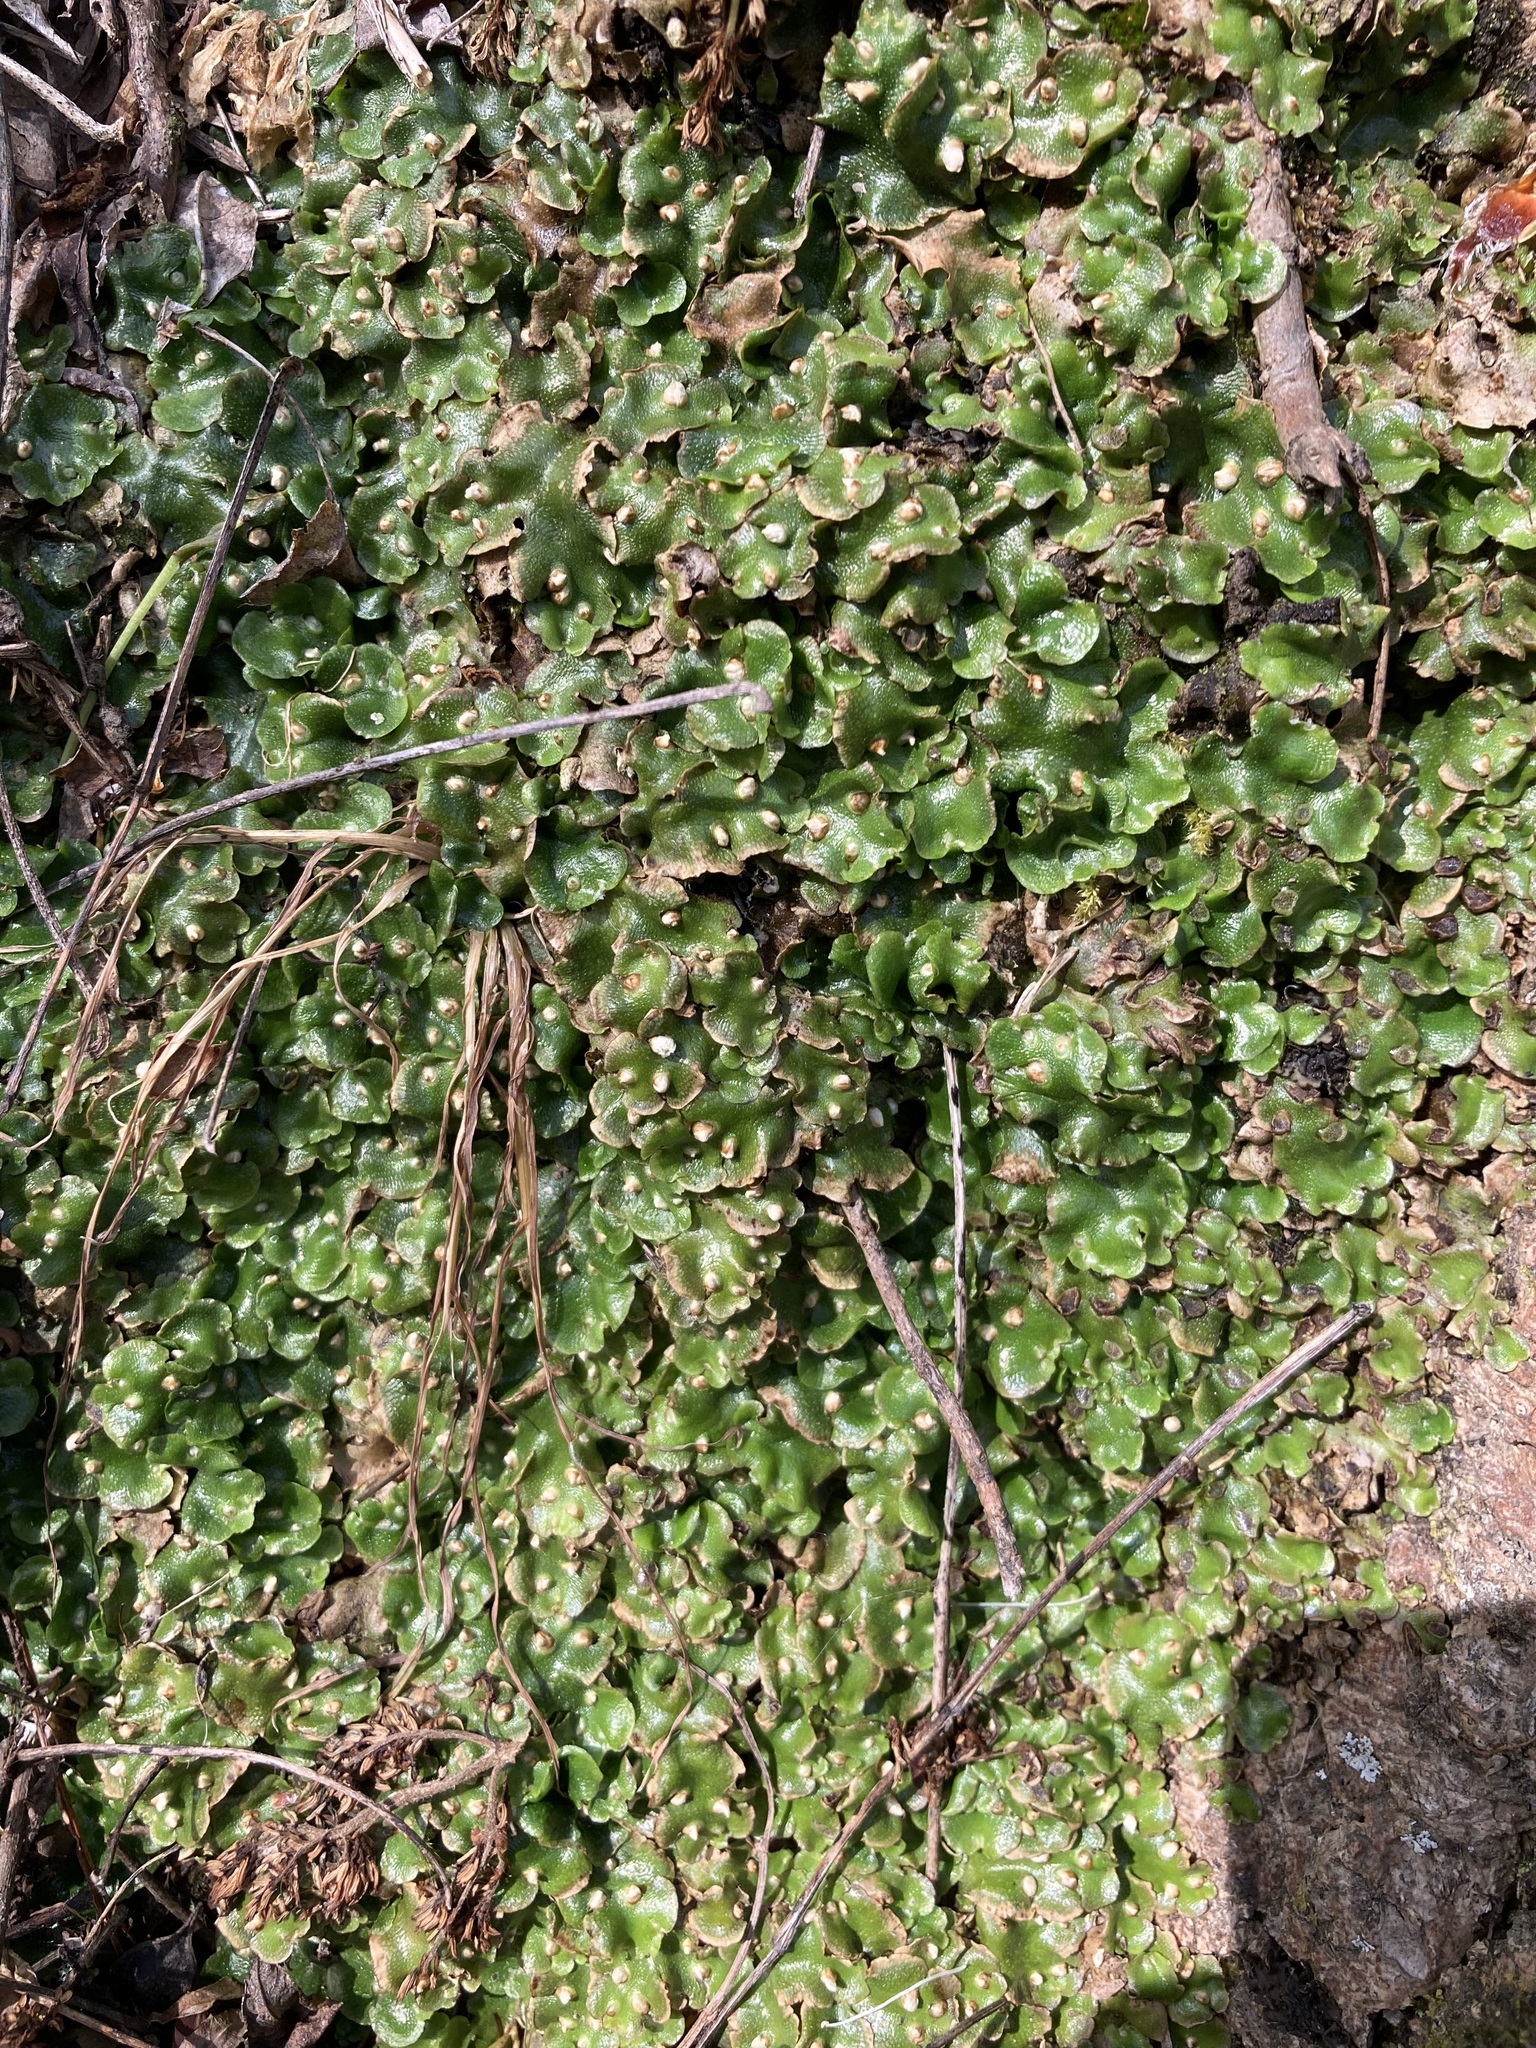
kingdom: Plantae
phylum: Marchantiophyta
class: Marchantiopsida
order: Lunulariales
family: Lunulariaceae
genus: Lunularia
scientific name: Lunularia cruciata
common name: Crescent-cup liverwort
